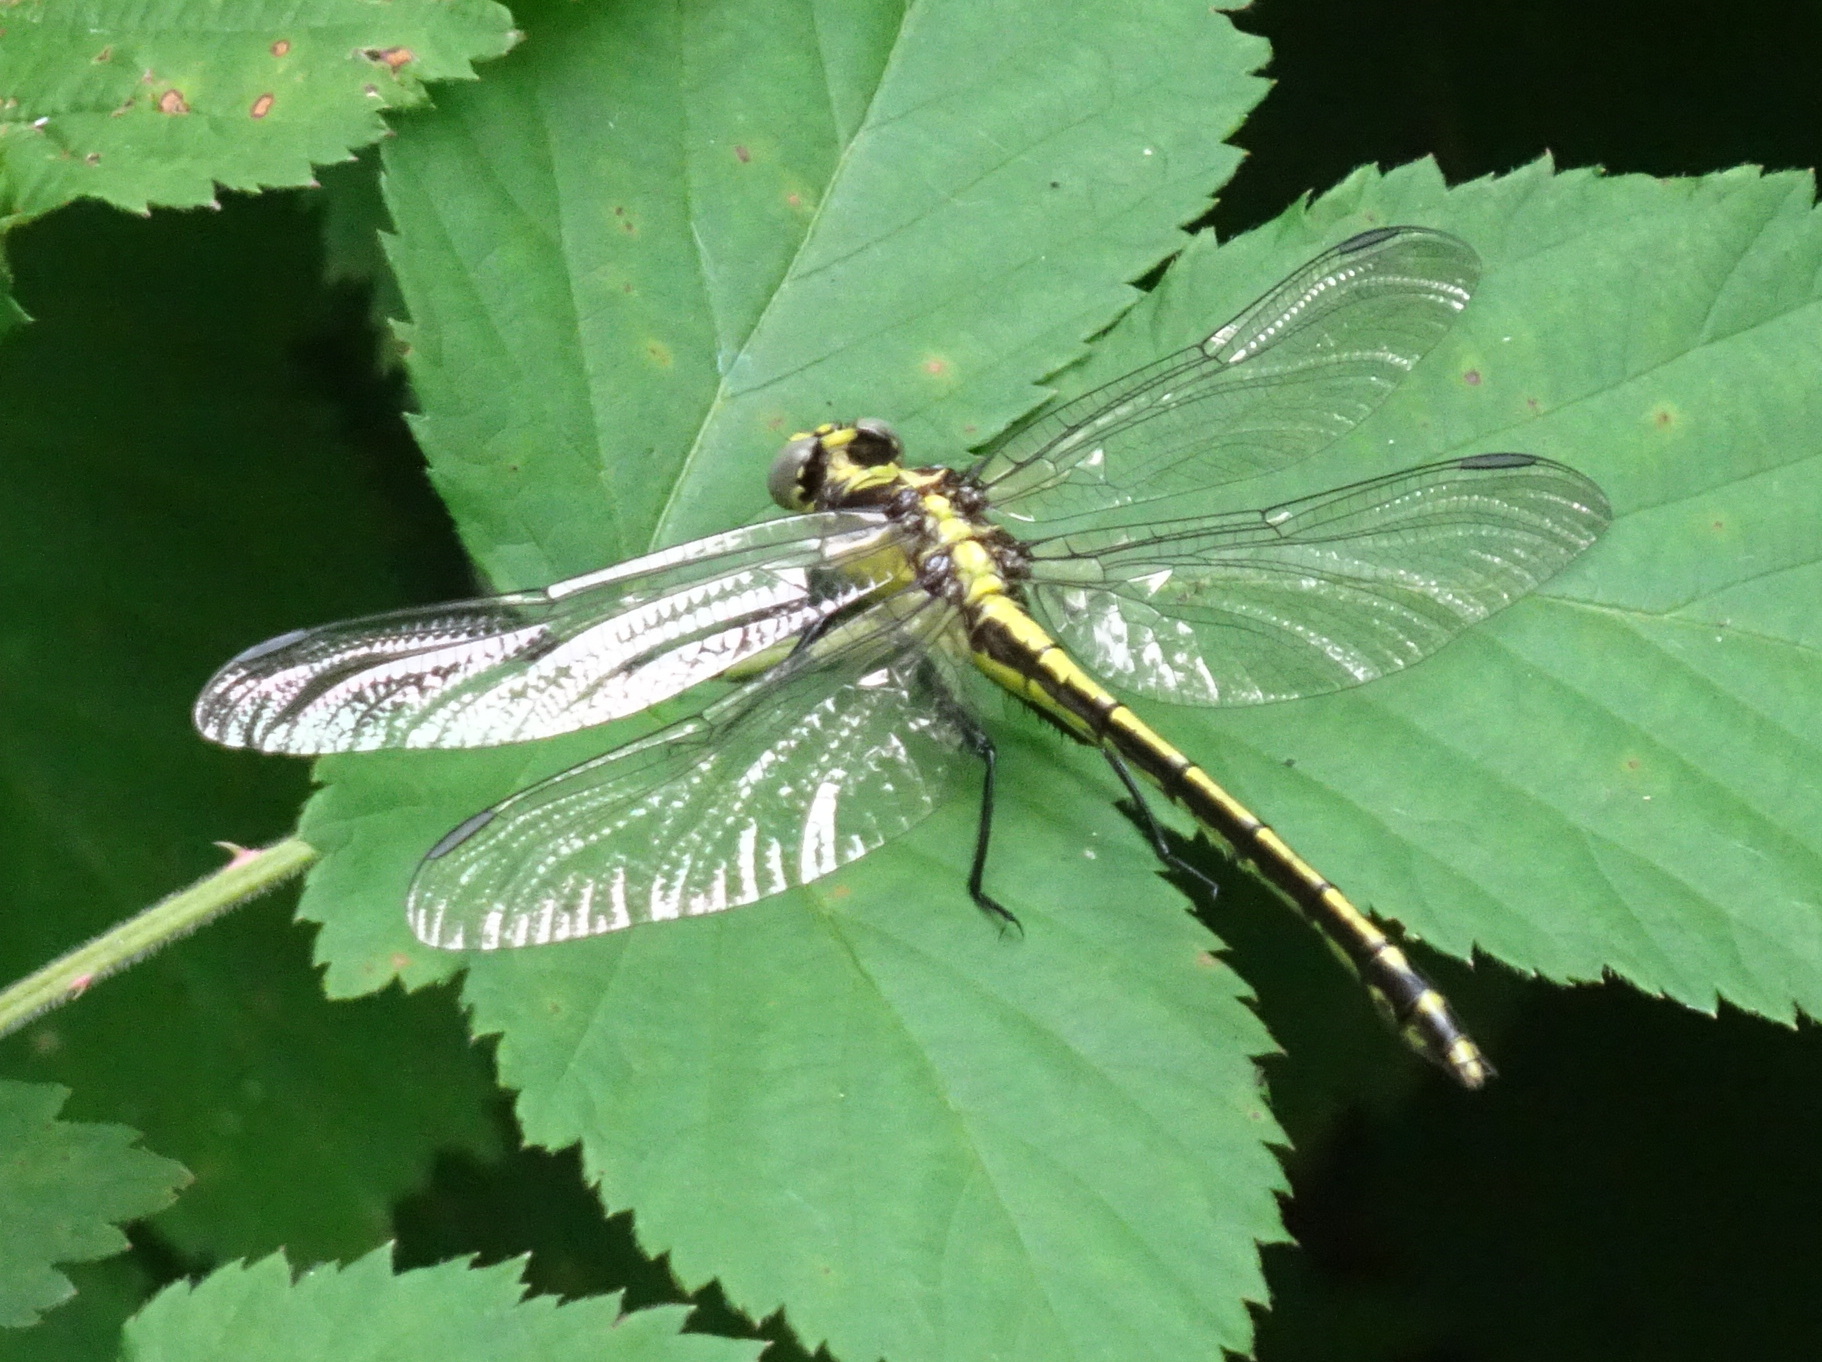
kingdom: Animalia
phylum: Arthropoda
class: Insecta
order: Odonata
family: Gomphidae
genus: Dromogomphus
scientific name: Dromogomphus spinosus
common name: Black-shouldered spinyleg
